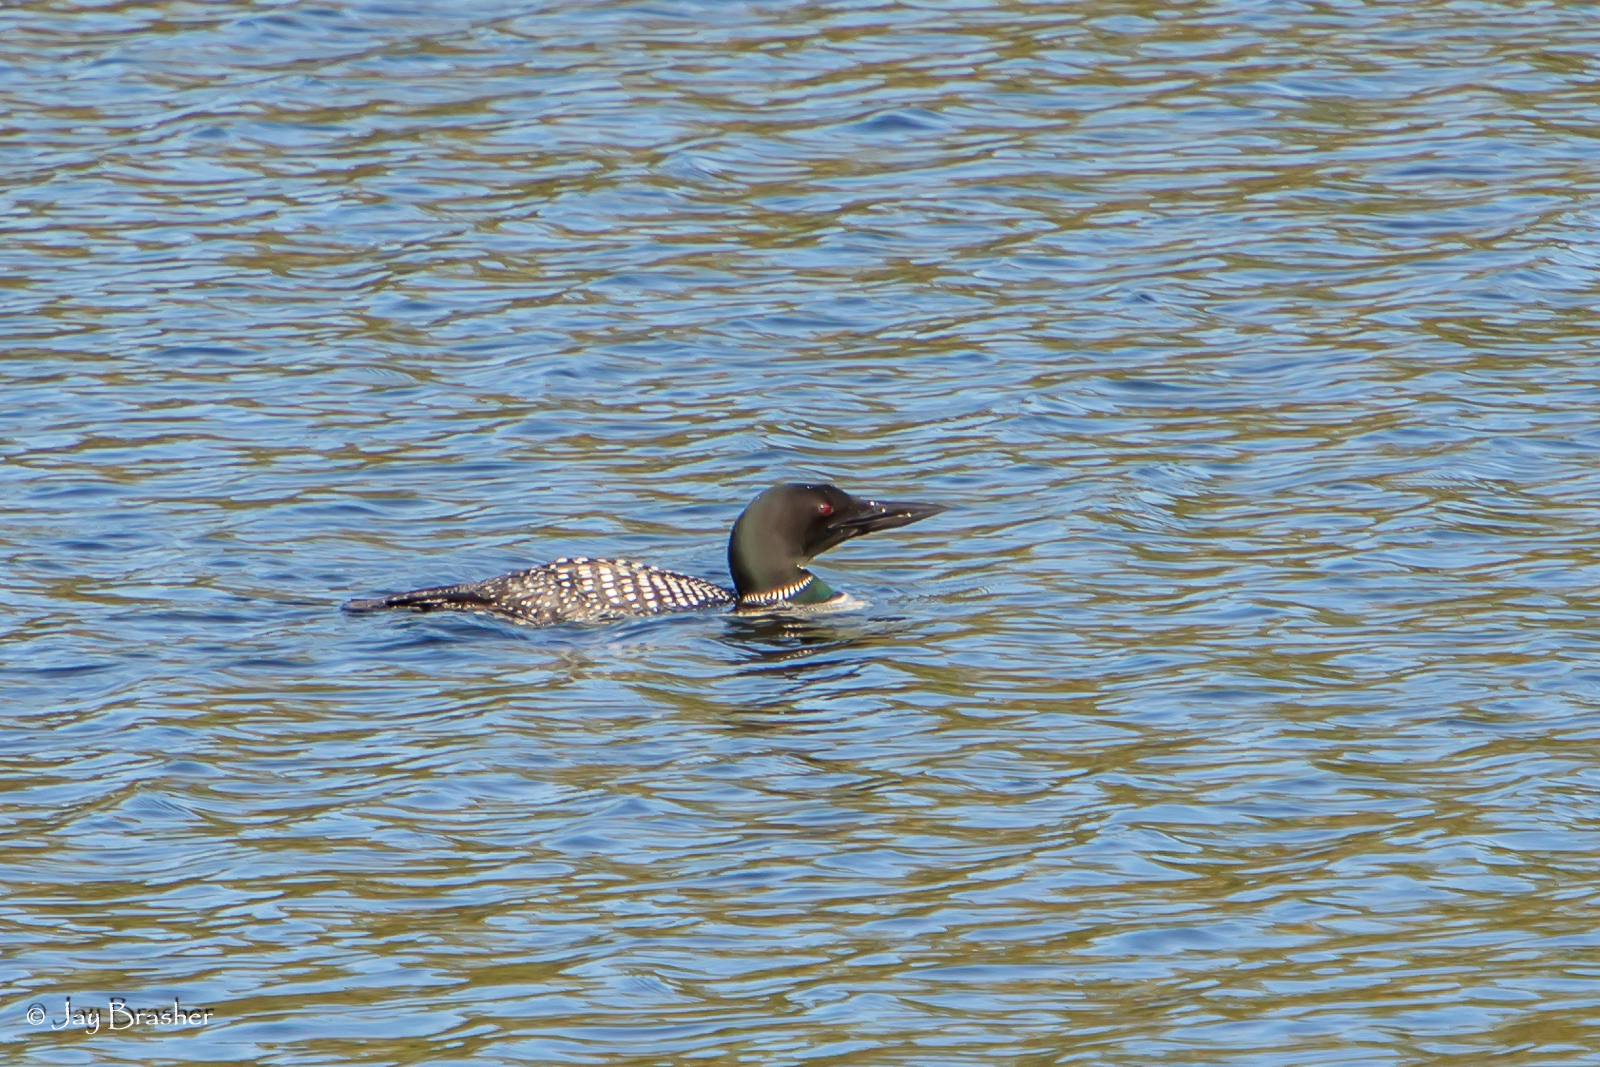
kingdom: Animalia
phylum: Chordata
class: Aves
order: Gaviiformes
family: Gaviidae
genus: Gavia
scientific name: Gavia immer
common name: Common loon
